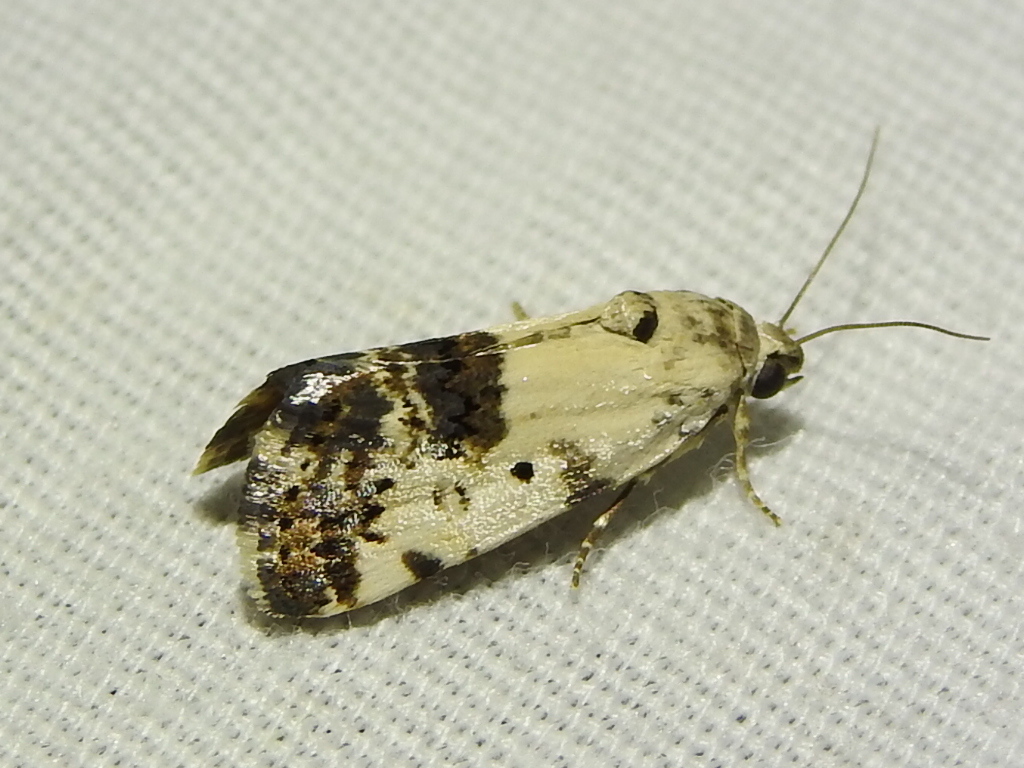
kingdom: Animalia
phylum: Arthropoda
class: Insecta
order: Lepidoptera
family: Noctuidae
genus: Acontia
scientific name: Acontia aprica
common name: Nun
